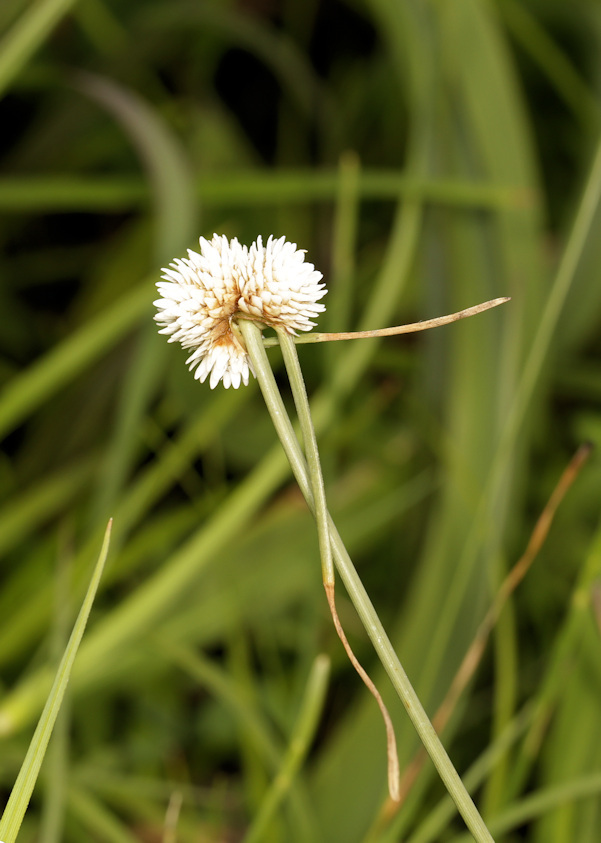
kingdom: Plantae
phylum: Tracheophyta
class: Liliopsida
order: Poales
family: Cyperaceae
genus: Cyperus
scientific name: Cyperus ascocapensis
